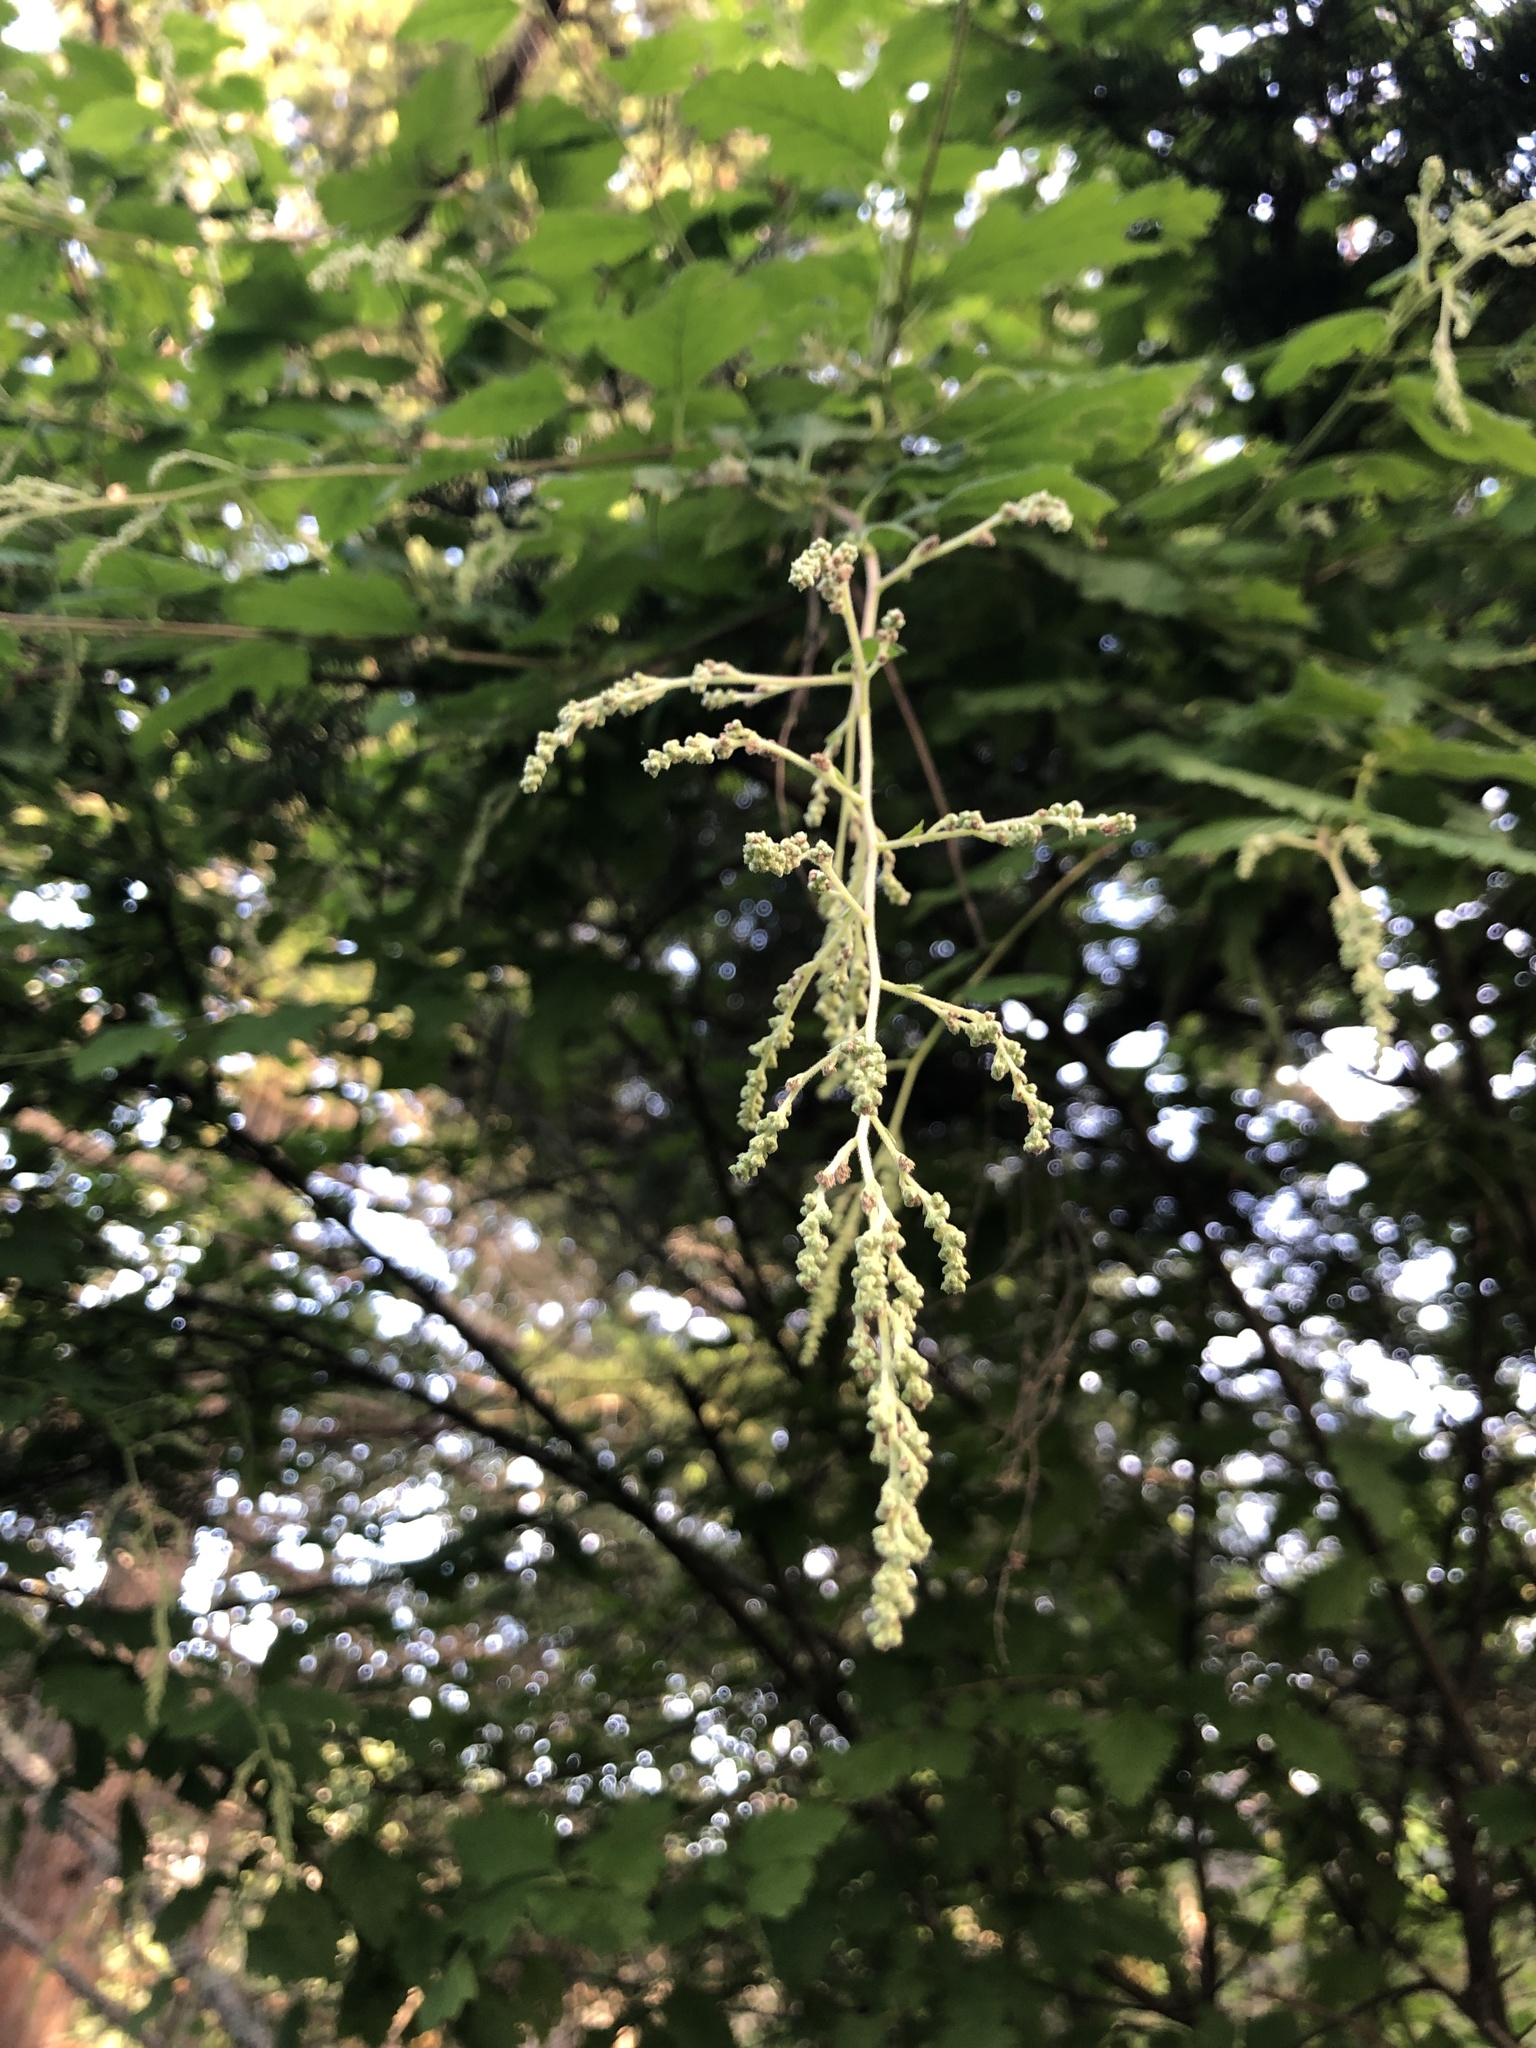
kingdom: Plantae
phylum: Tracheophyta
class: Magnoliopsida
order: Rosales
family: Rosaceae
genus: Holodiscus
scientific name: Holodiscus discolor
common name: Oceanspray
